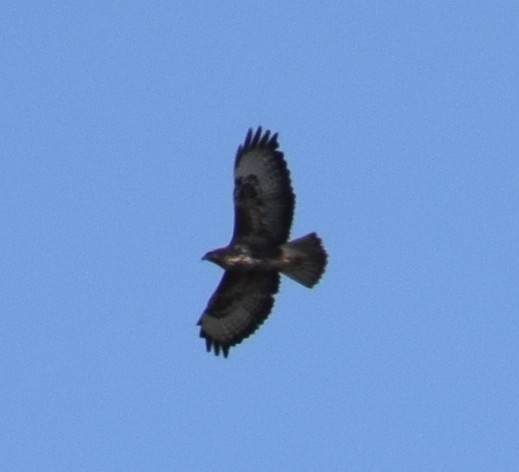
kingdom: Animalia
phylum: Chordata
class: Aves
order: Accipitriformes
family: Accipitridae
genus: Buteo
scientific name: Buteo buteo
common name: Common buzzard
